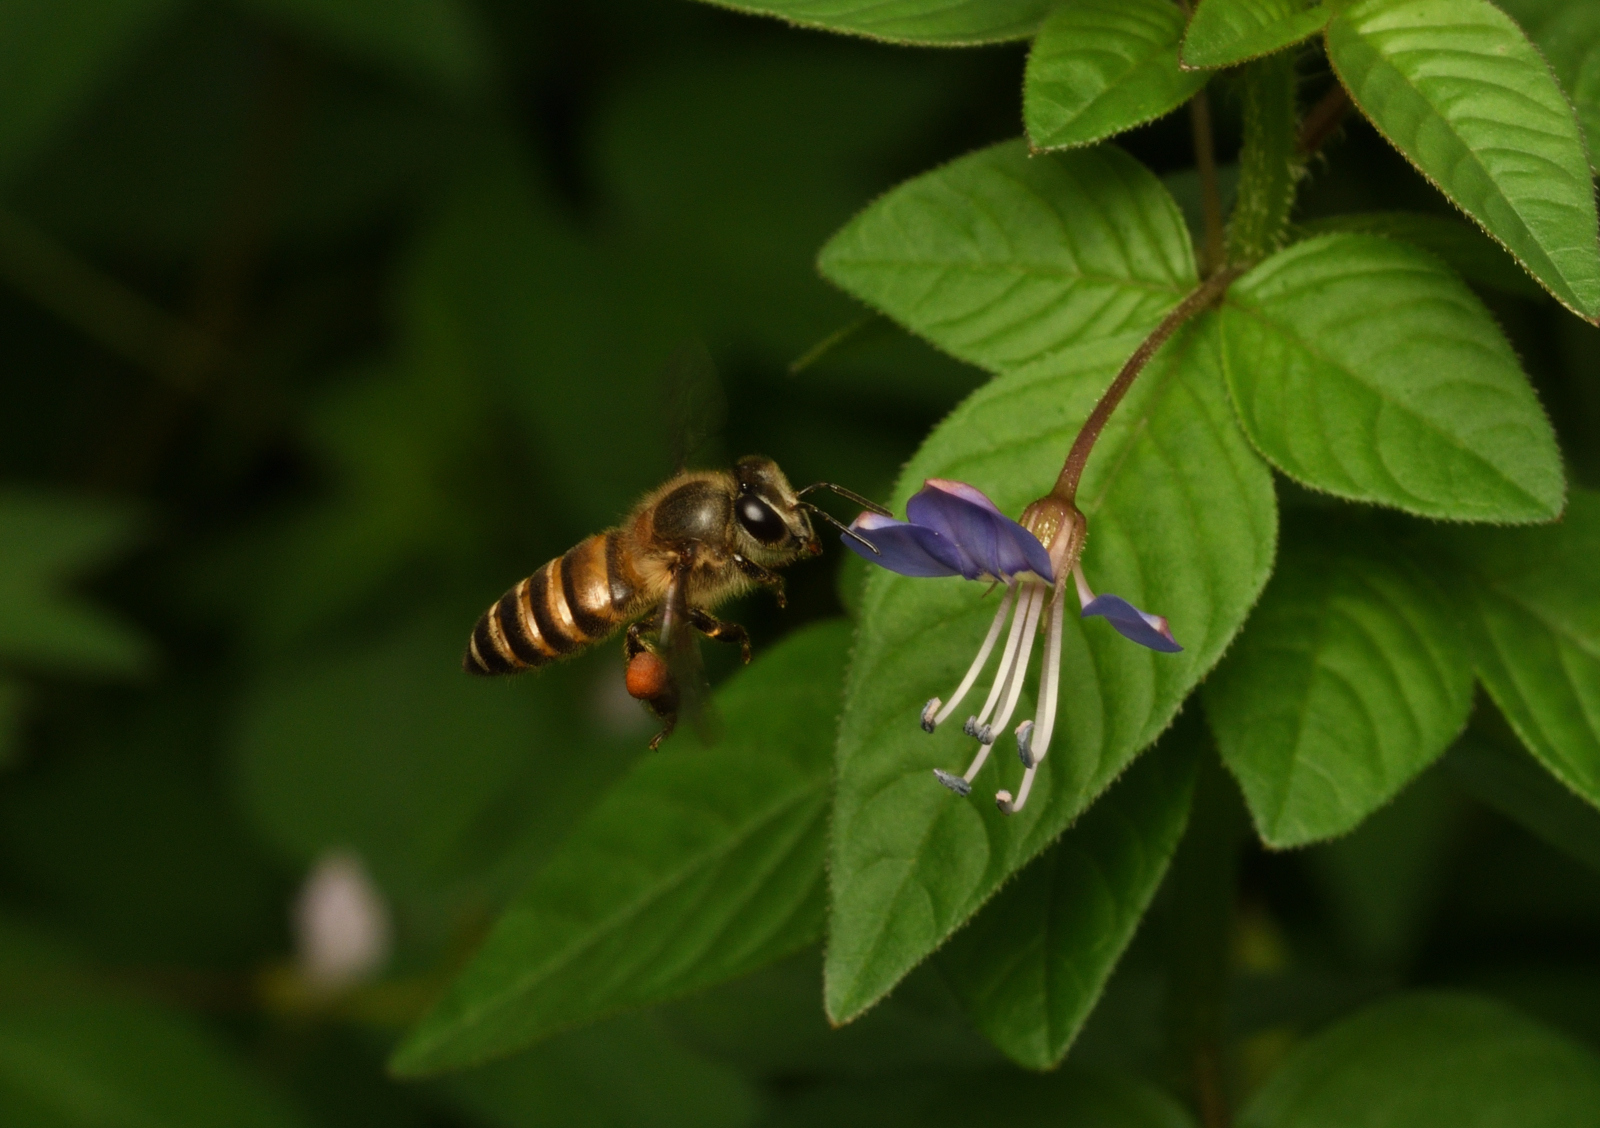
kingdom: Animalia
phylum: Arthropoda
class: Insecta
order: Hymenoptera
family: Apidae
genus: Apis
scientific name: Apis cerana
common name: Honey bee
